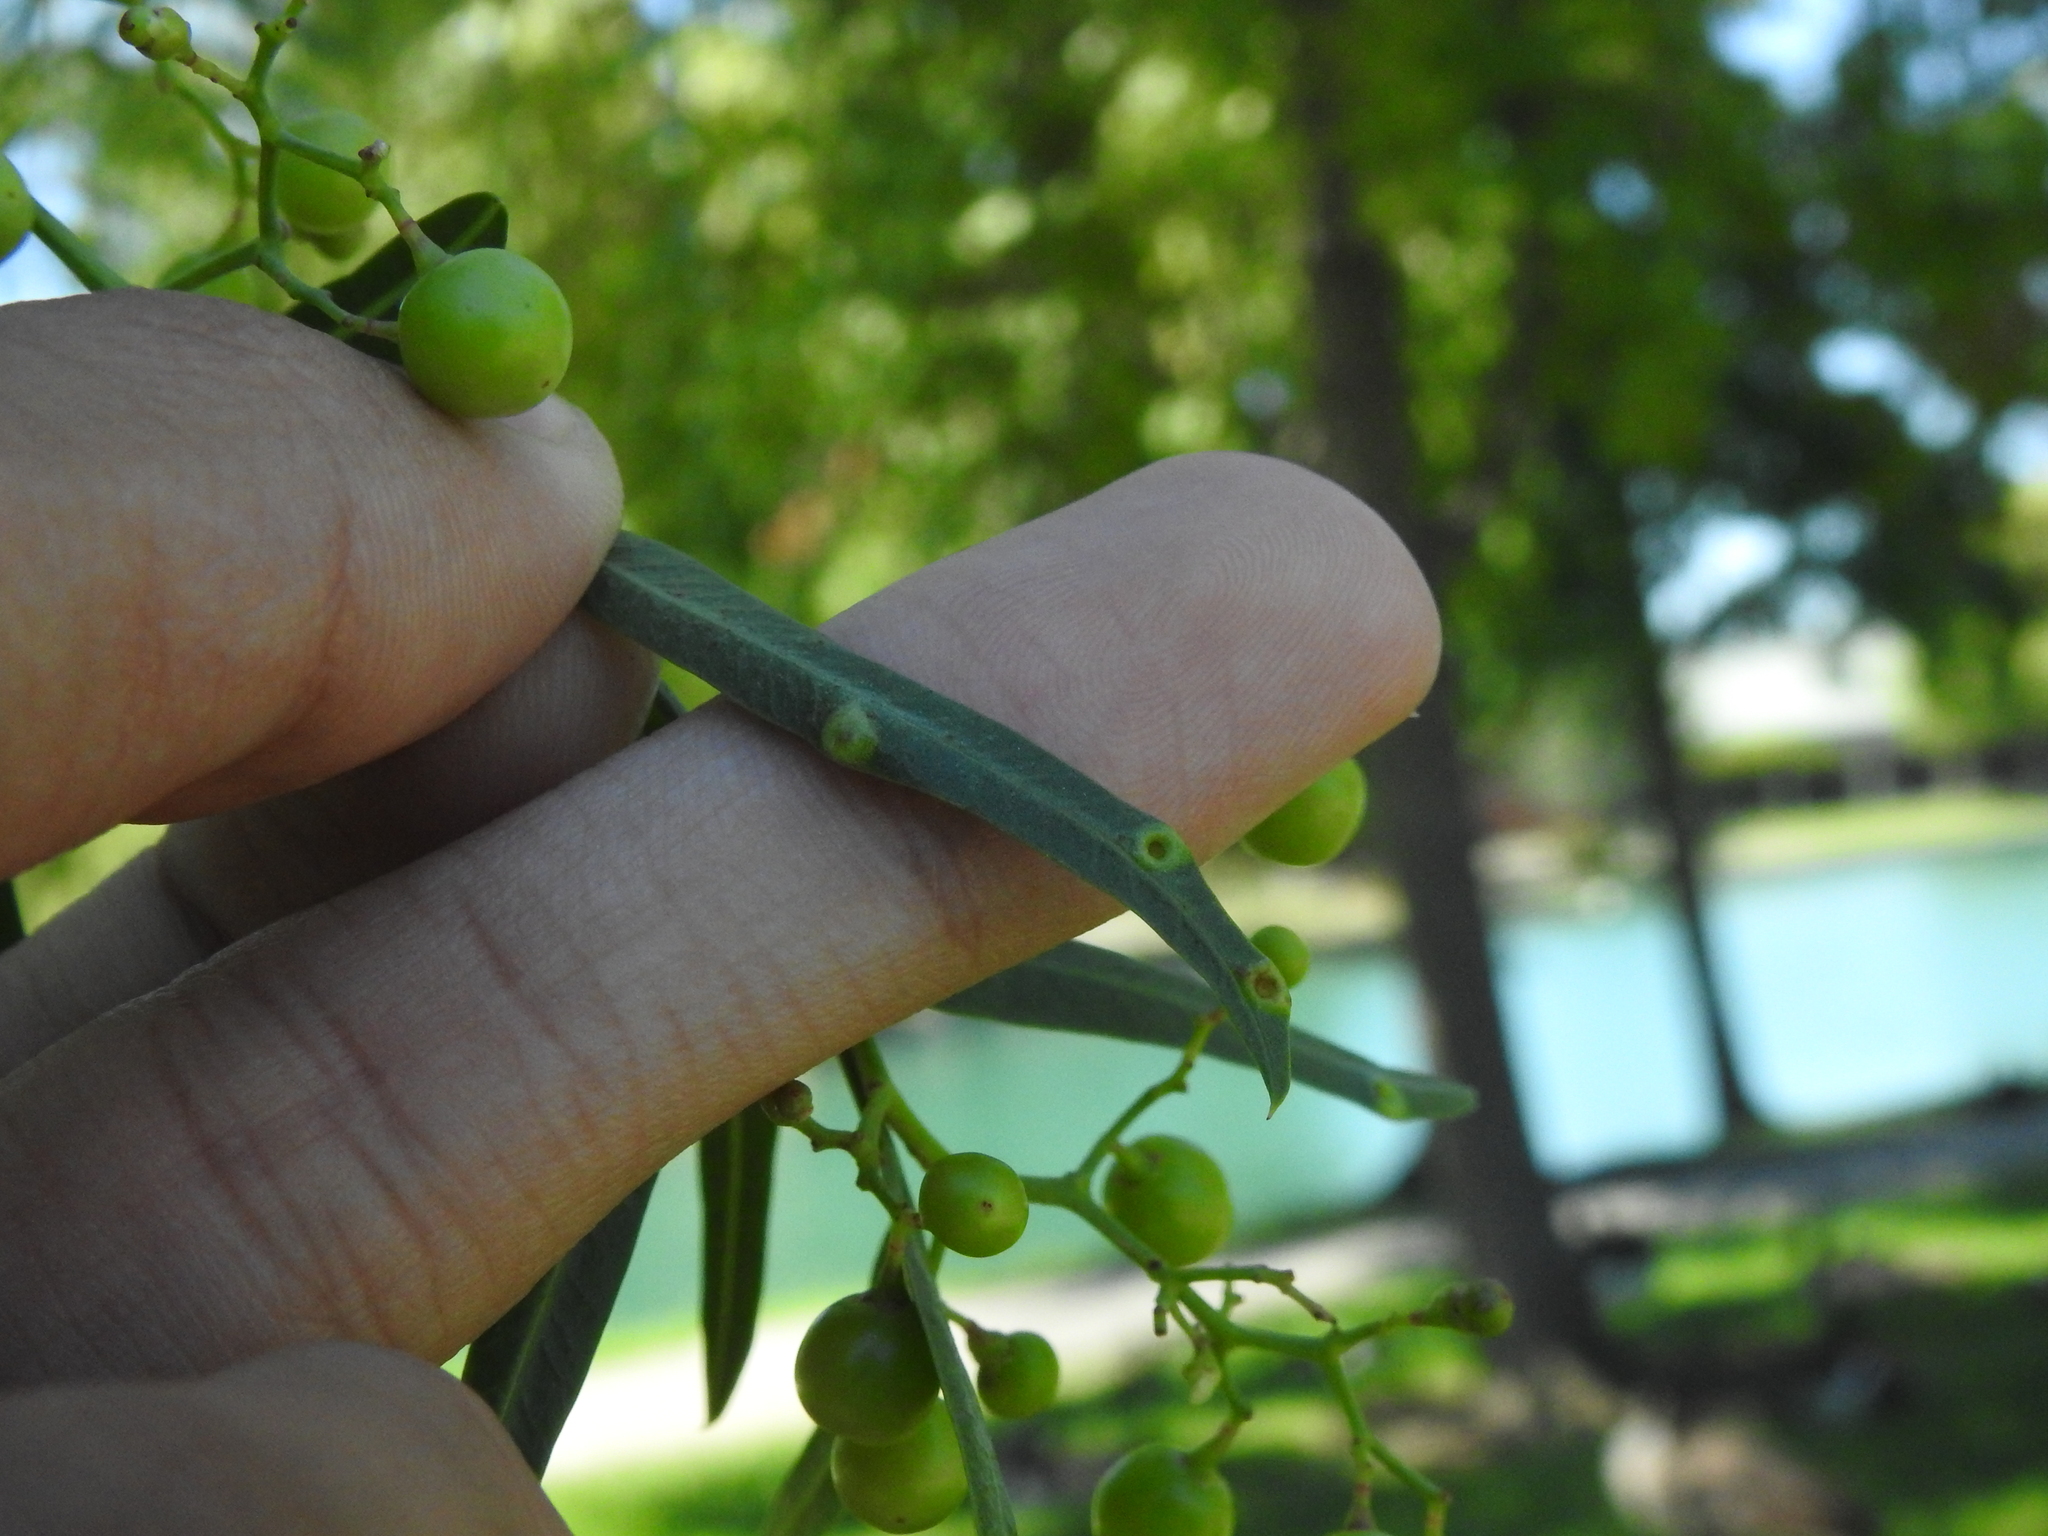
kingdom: Animalia
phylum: Arthropoda
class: Insecta
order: Hemiptera
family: Calophyidae
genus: Calophya
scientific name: Calophya schini
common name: Pepper tree psyllid
